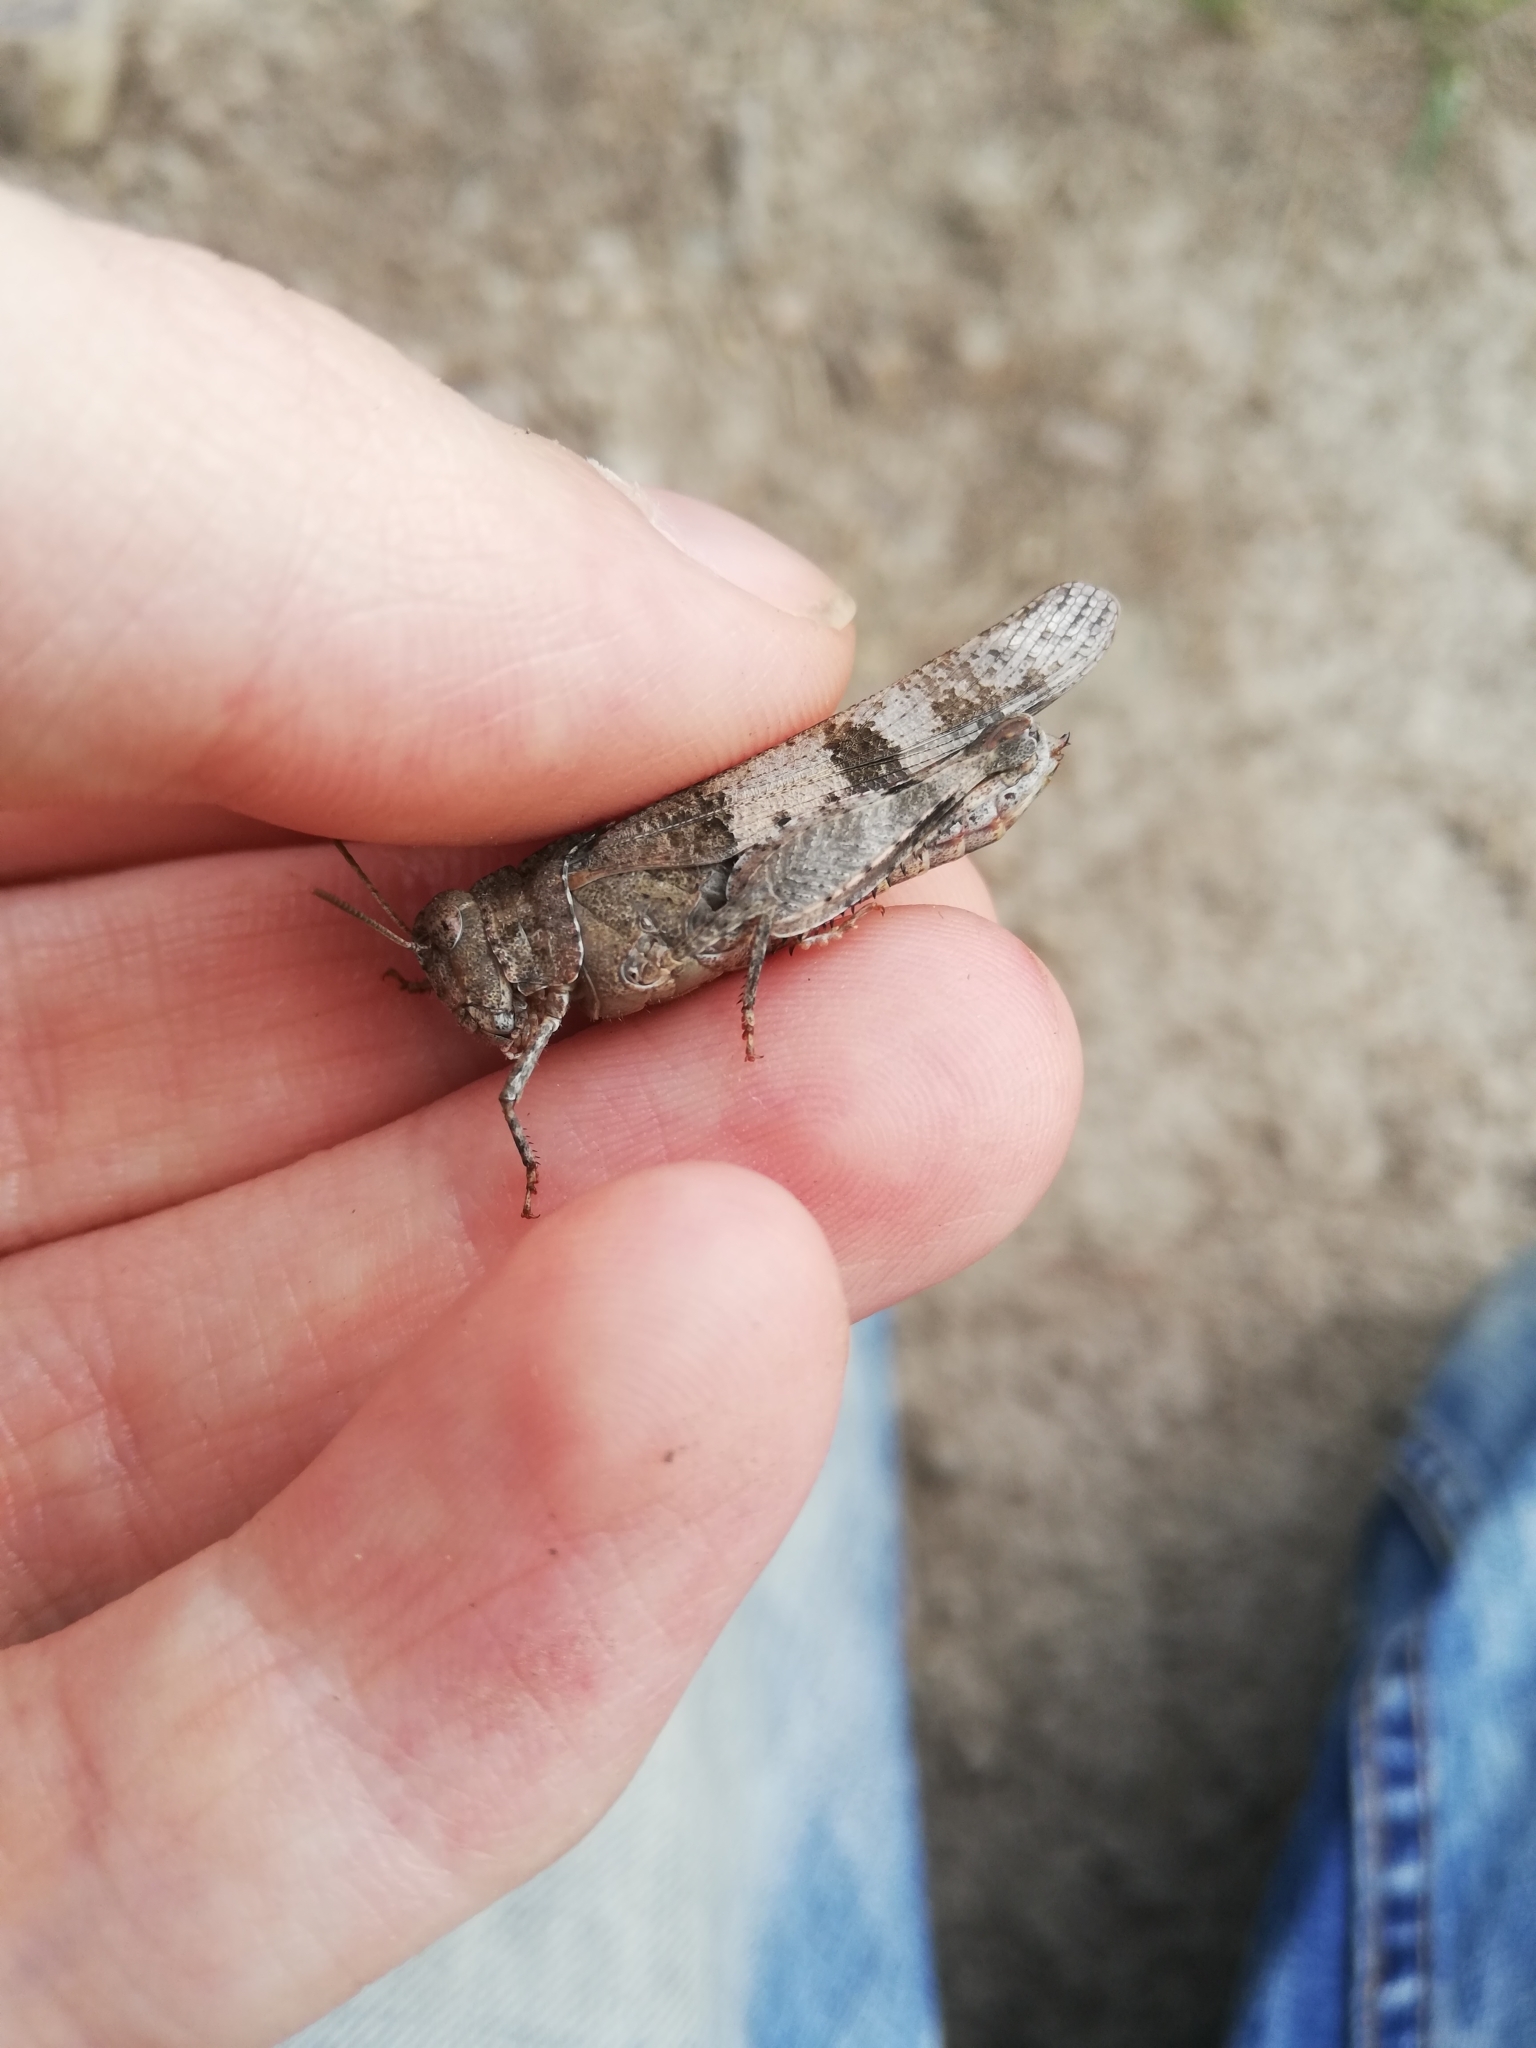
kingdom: Animalia
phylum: Arthropoda
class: Insecta
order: Orthoptera
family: Acrididae
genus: Oedipoda
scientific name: Oedipoda caerulescens
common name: Blue-winged grasshopper
